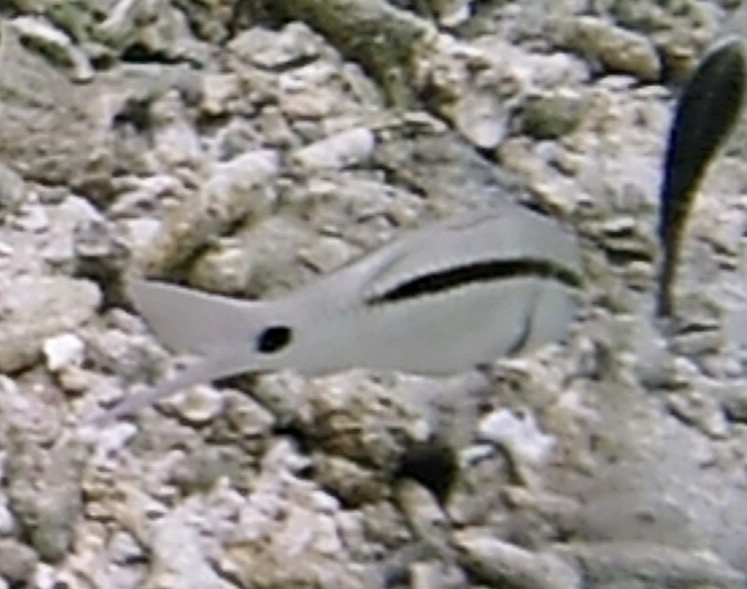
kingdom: Animalia
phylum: Chordata
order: Perciformes
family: Mullidae
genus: Parupeneus
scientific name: Parupeneus barberinus
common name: Dash-and-dot goatfish
